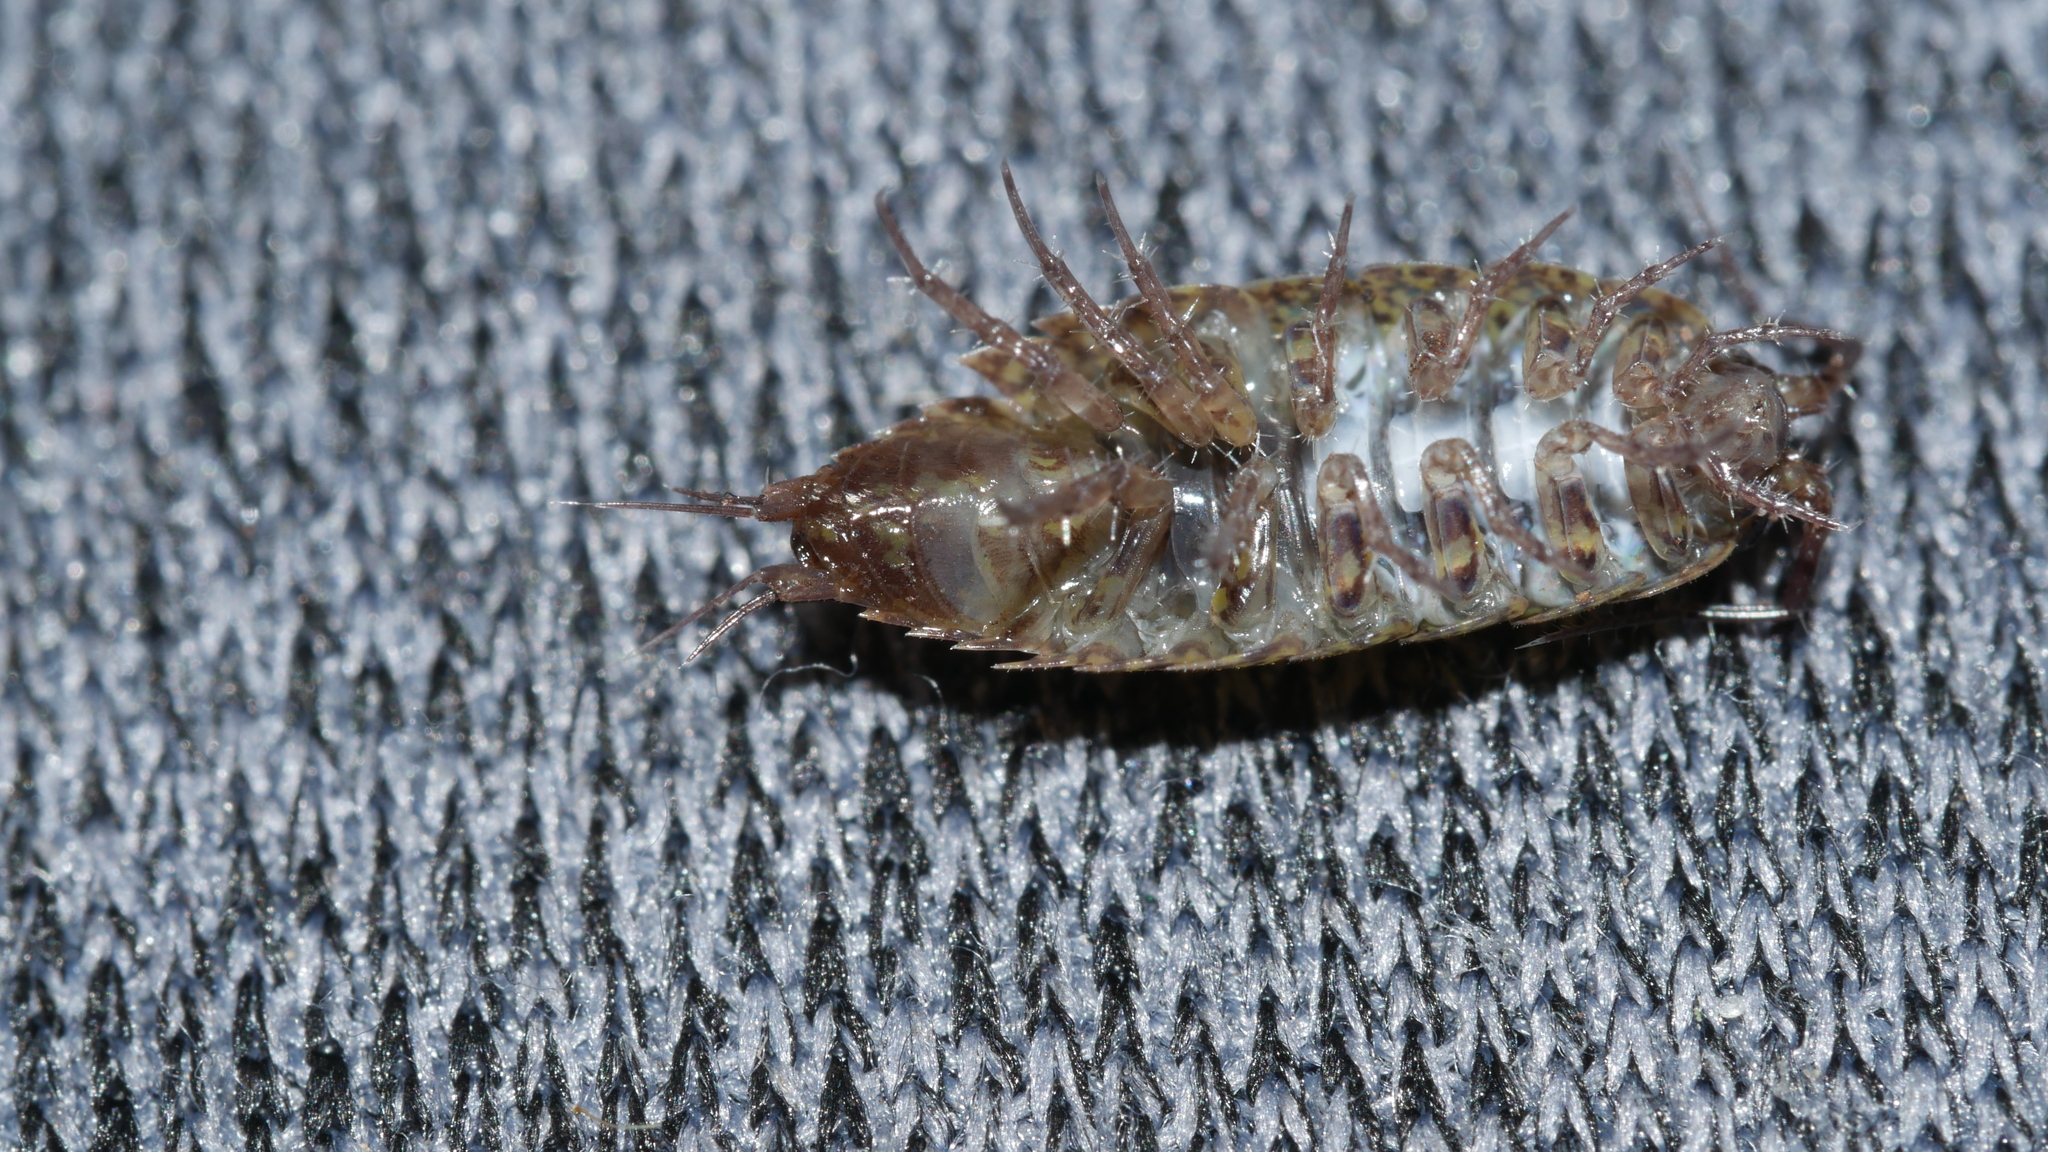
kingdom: Animalia
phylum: Arthropoda
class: Malacostraca
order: Isopoda
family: Ligiidae
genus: Ligidium
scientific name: Ligidium elrodii
